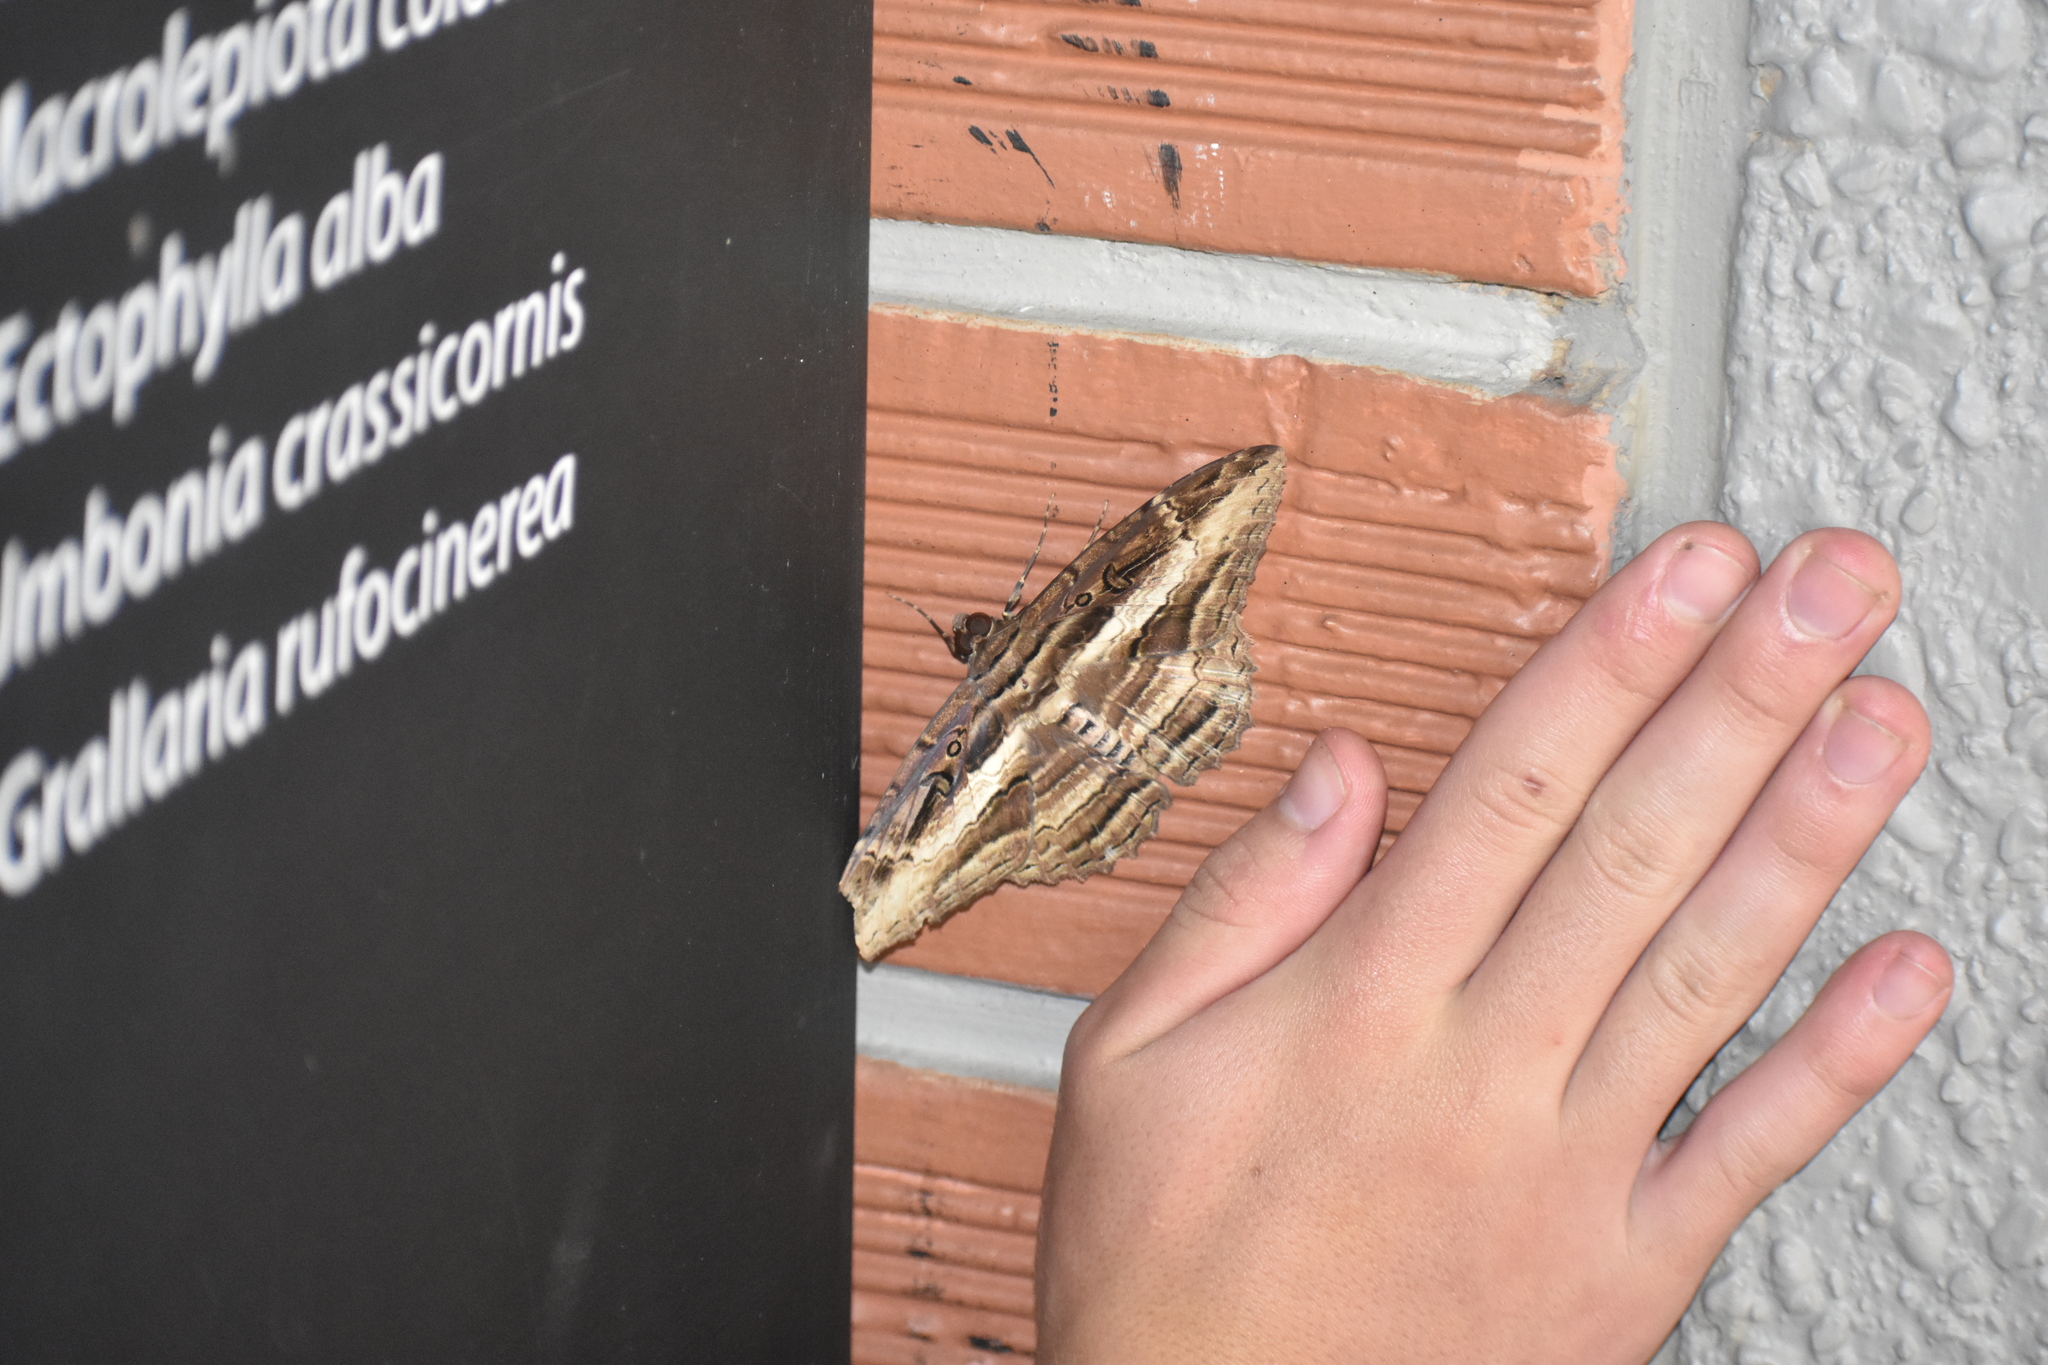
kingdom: Animalia
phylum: Arthropoda
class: Insecta
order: Lepidoptera
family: Erebidae
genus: Feigeria
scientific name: Feigeria buteo
